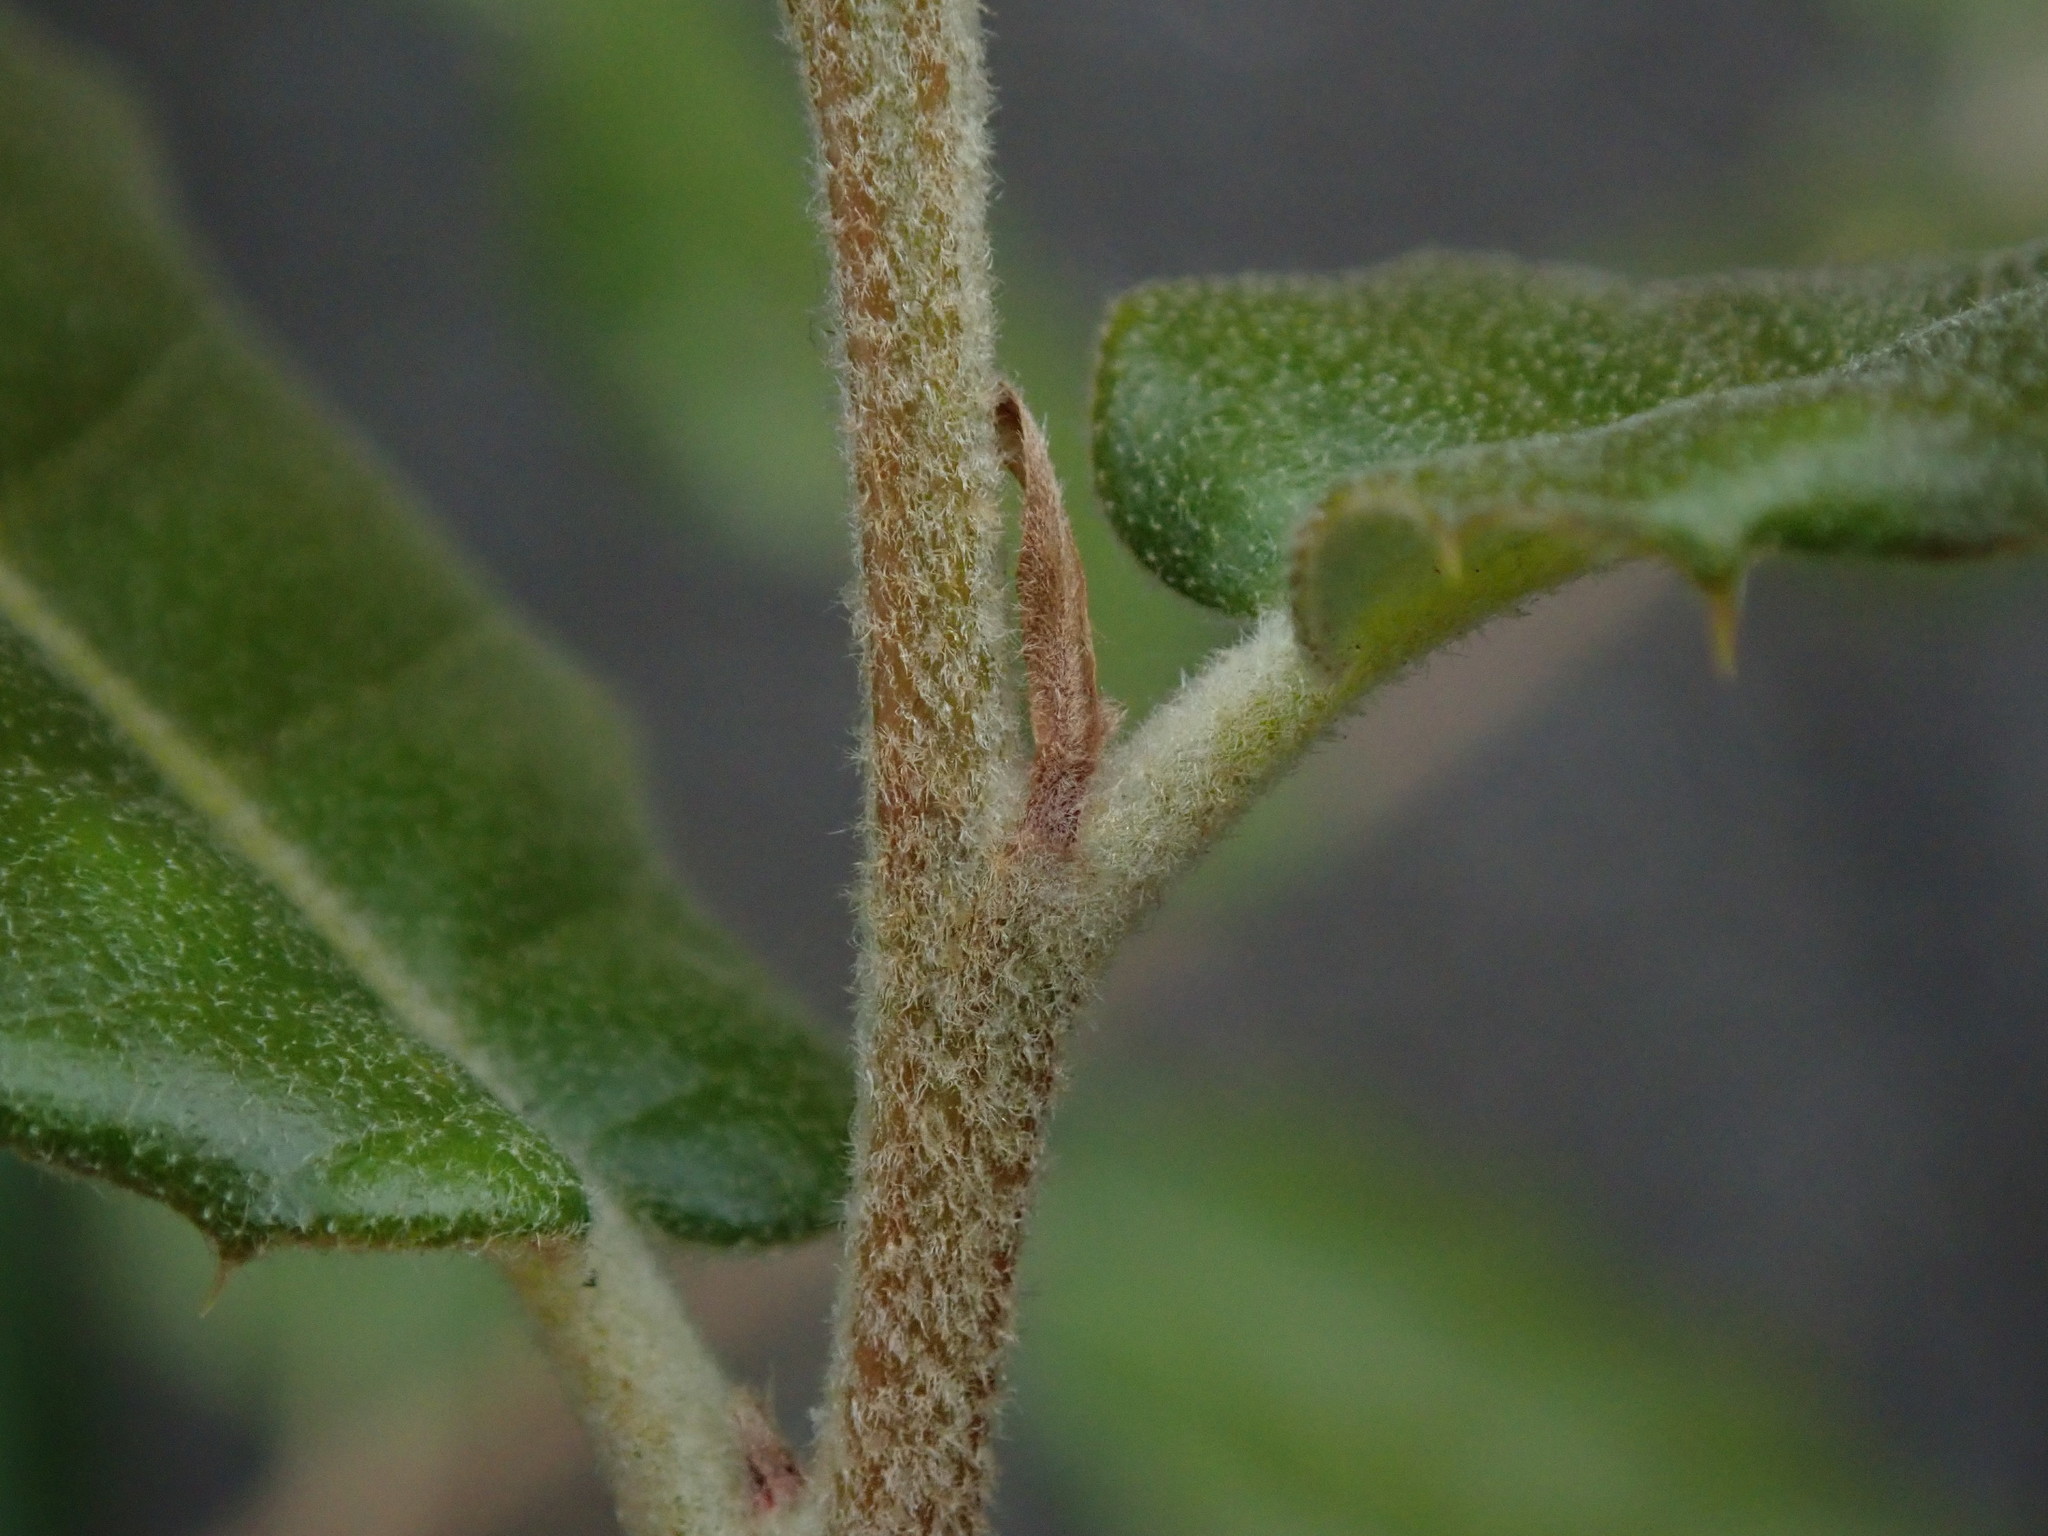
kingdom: Plantae
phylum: Tracheophyta
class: Magnoliopsida
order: Fagales
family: Fagaceae
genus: Quercus
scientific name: Quercus ilex
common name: Evergreen oak
